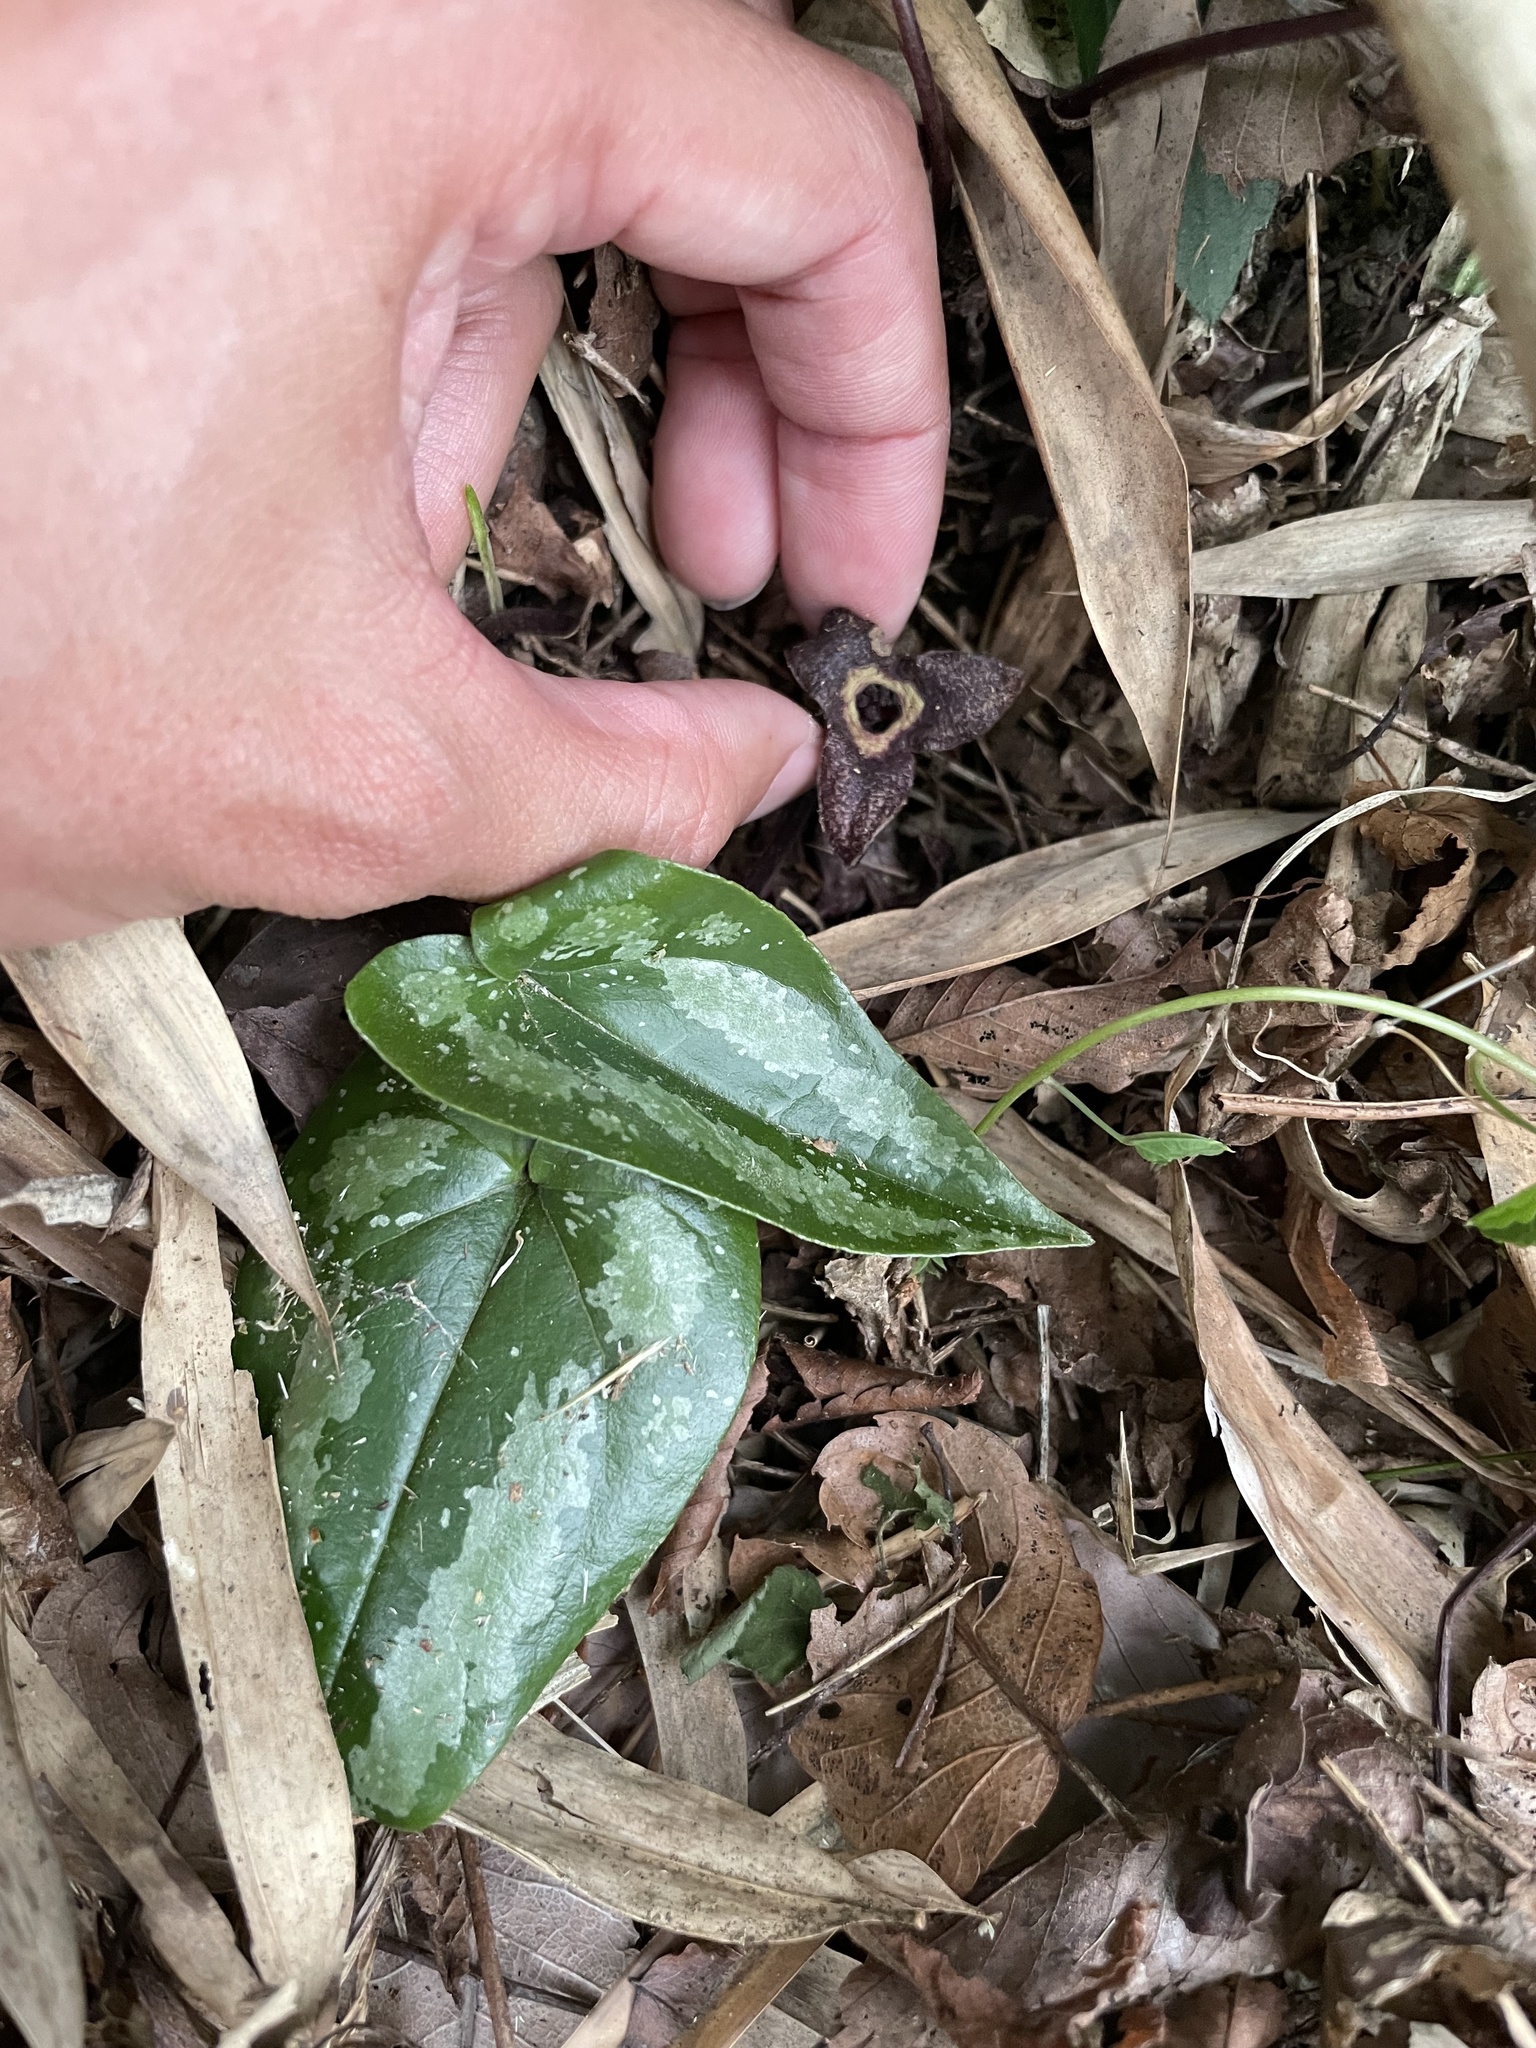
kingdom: Plantae
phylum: Tracheophyta
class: Magnoliopsida
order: Piperales
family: Aristolochiaceae
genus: Asarum
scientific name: Asarum nipponicum
